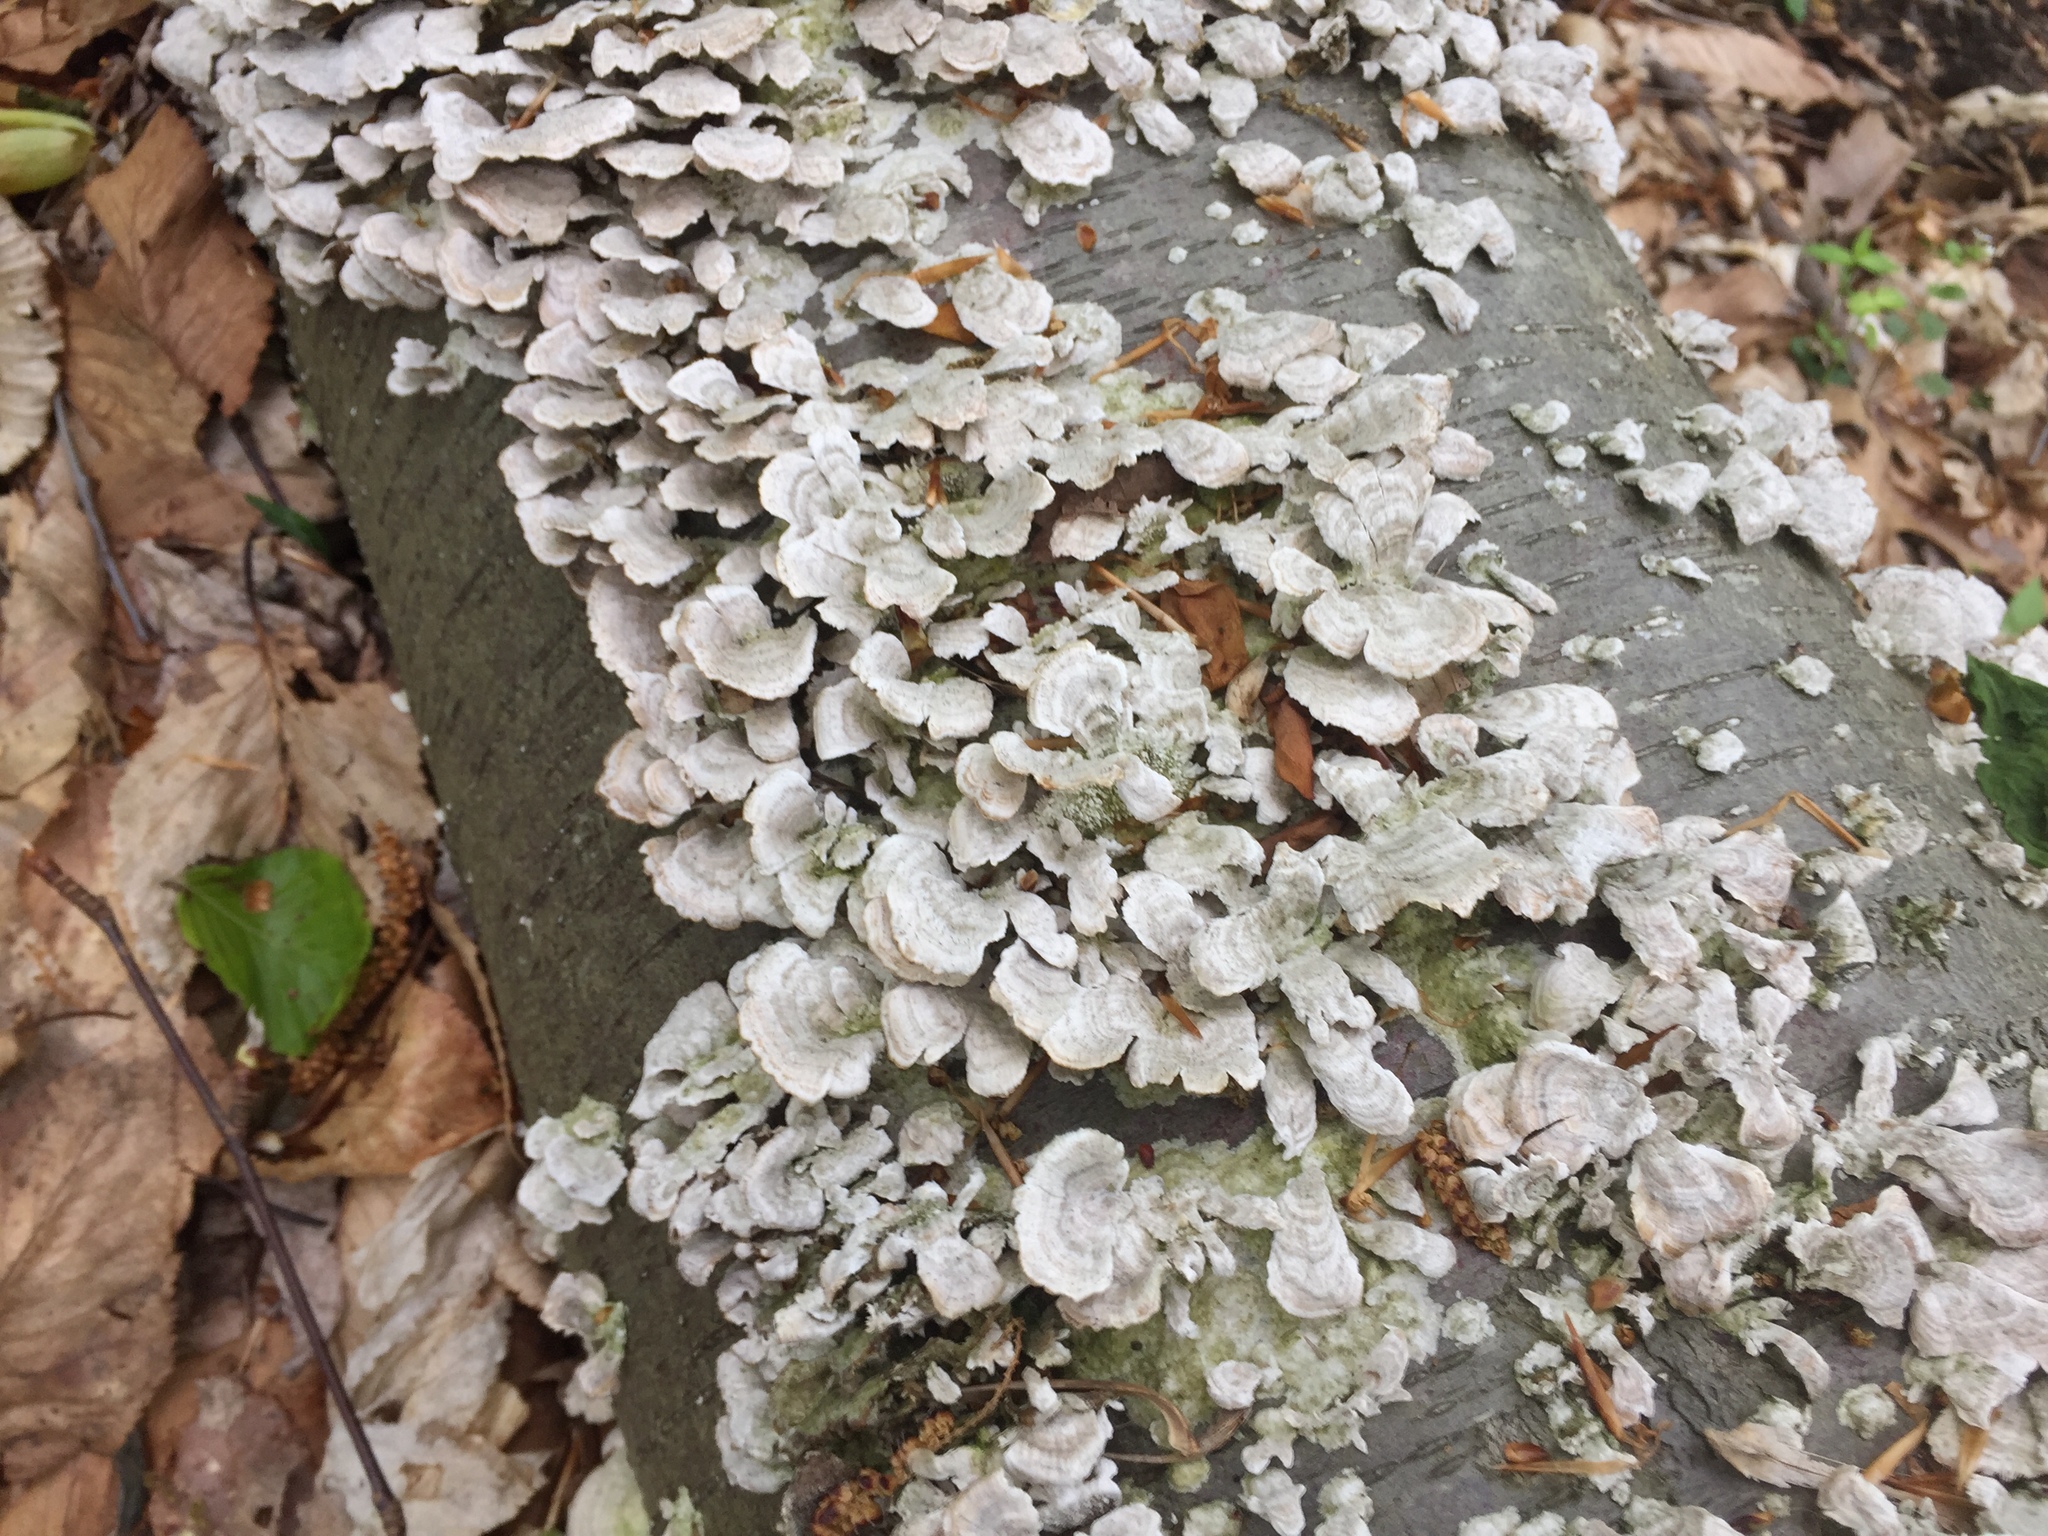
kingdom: Fungi
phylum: Basidiomycota
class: Agaricomycetes
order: Hymenochaetales
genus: Trichaptum
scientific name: Trichaptum biforme
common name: Violet-toothed polypore
